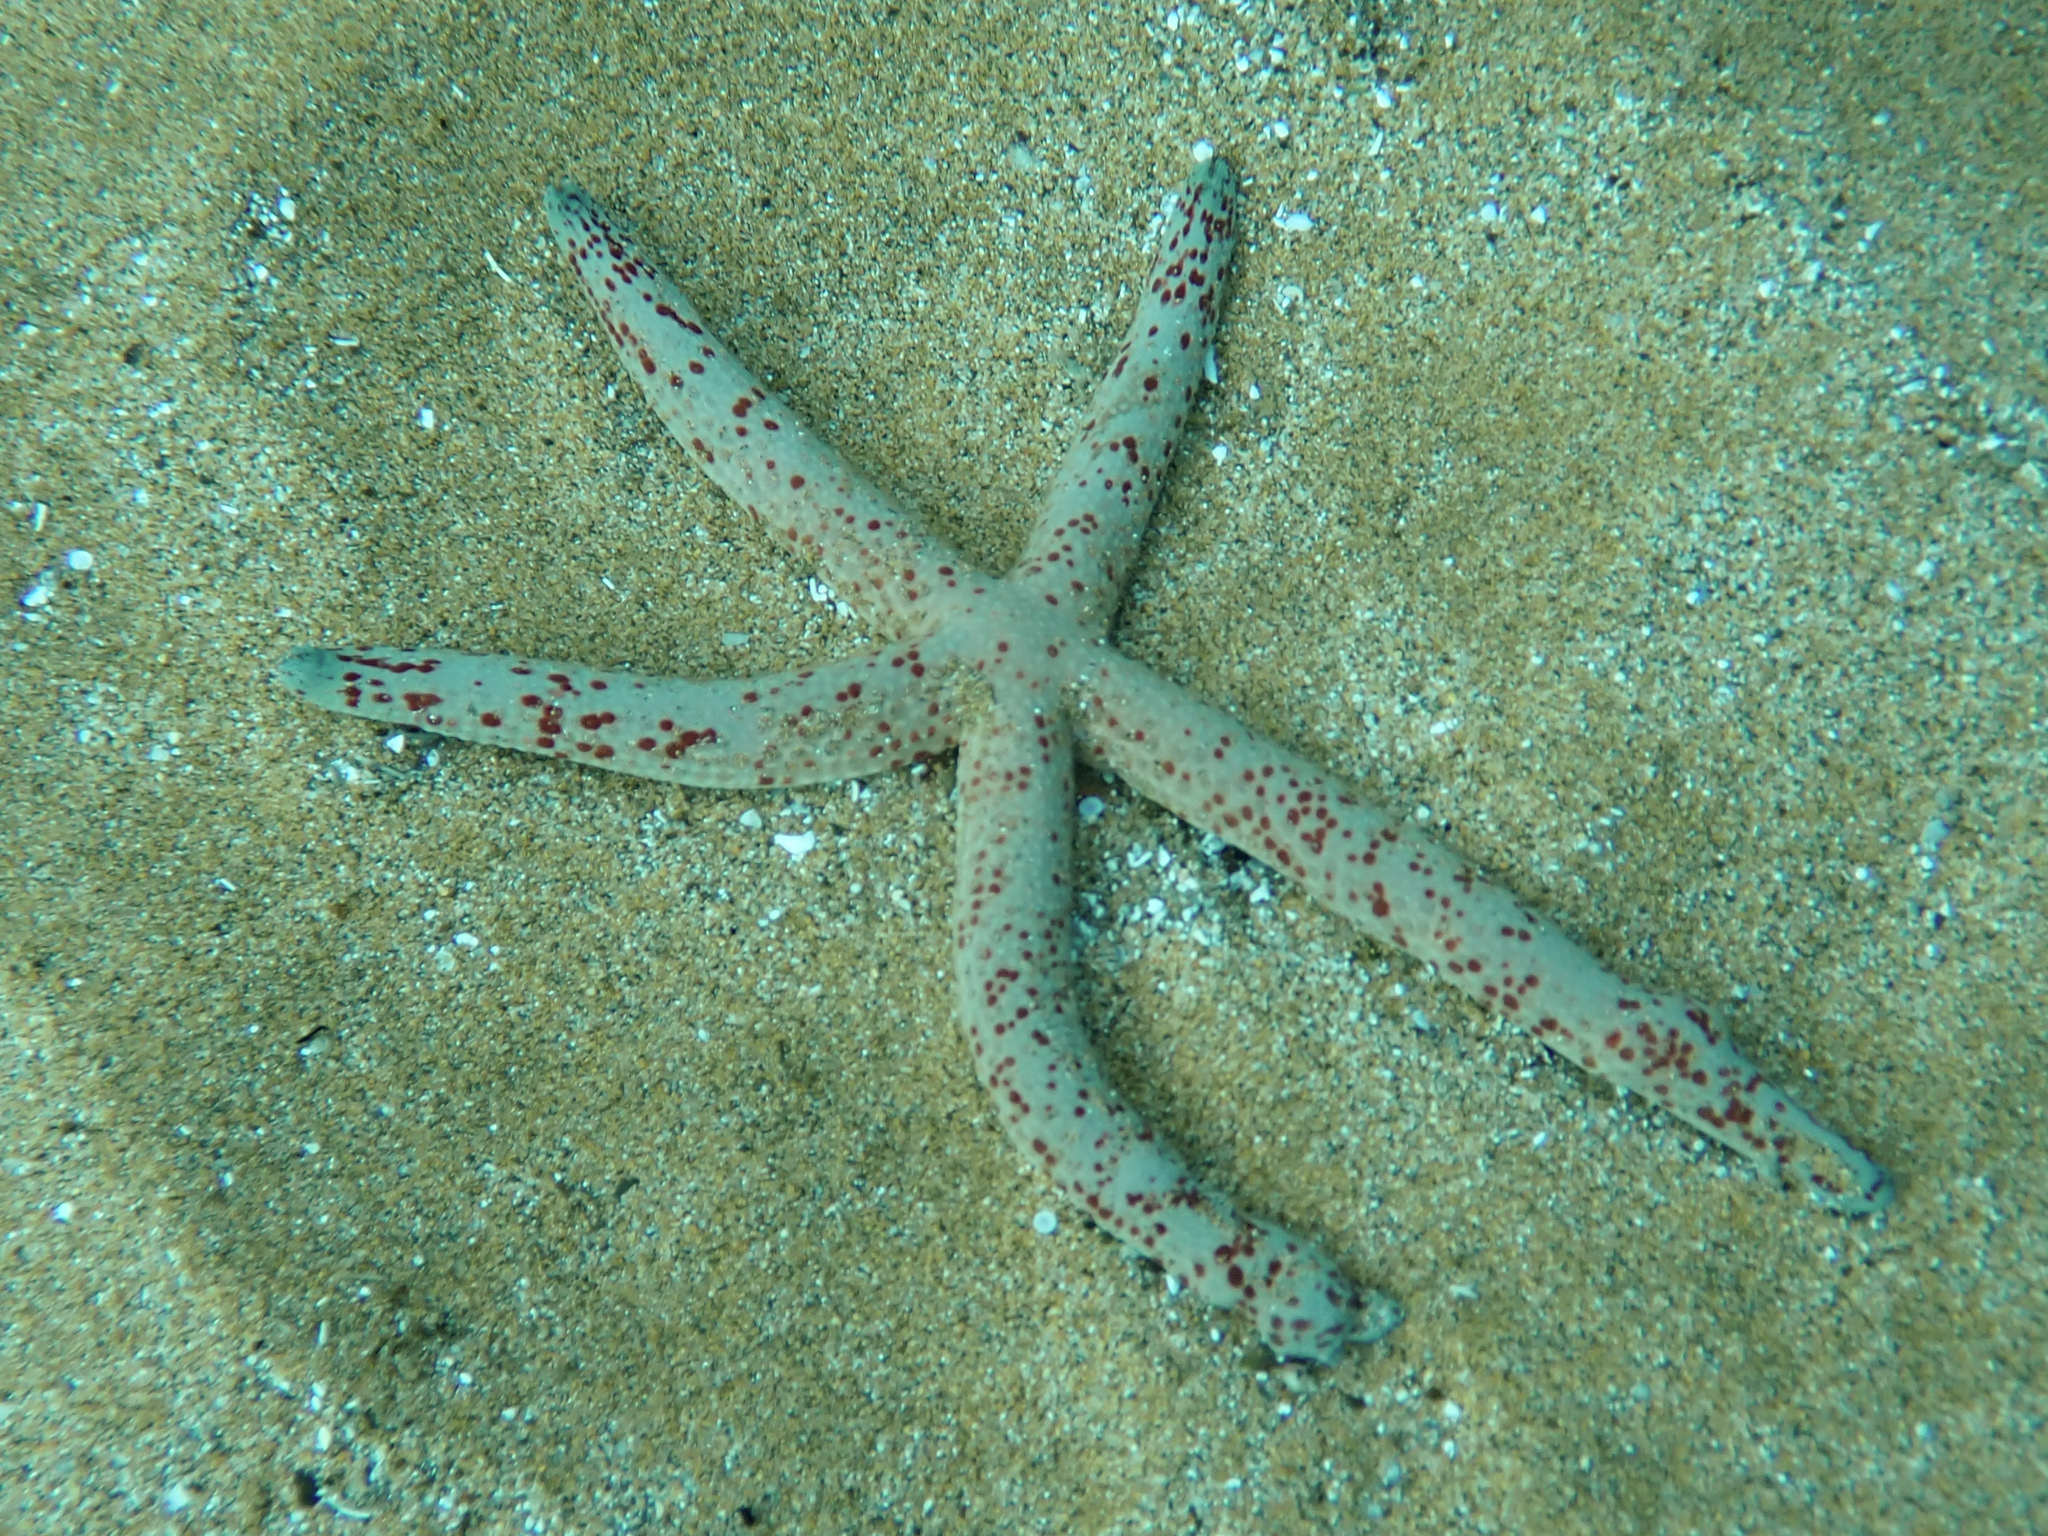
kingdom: Animalia
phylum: Echinodermata
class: Asteroidea
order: Valvatida
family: Ophidiasteridae
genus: Linckia
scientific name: Linckia multifora
